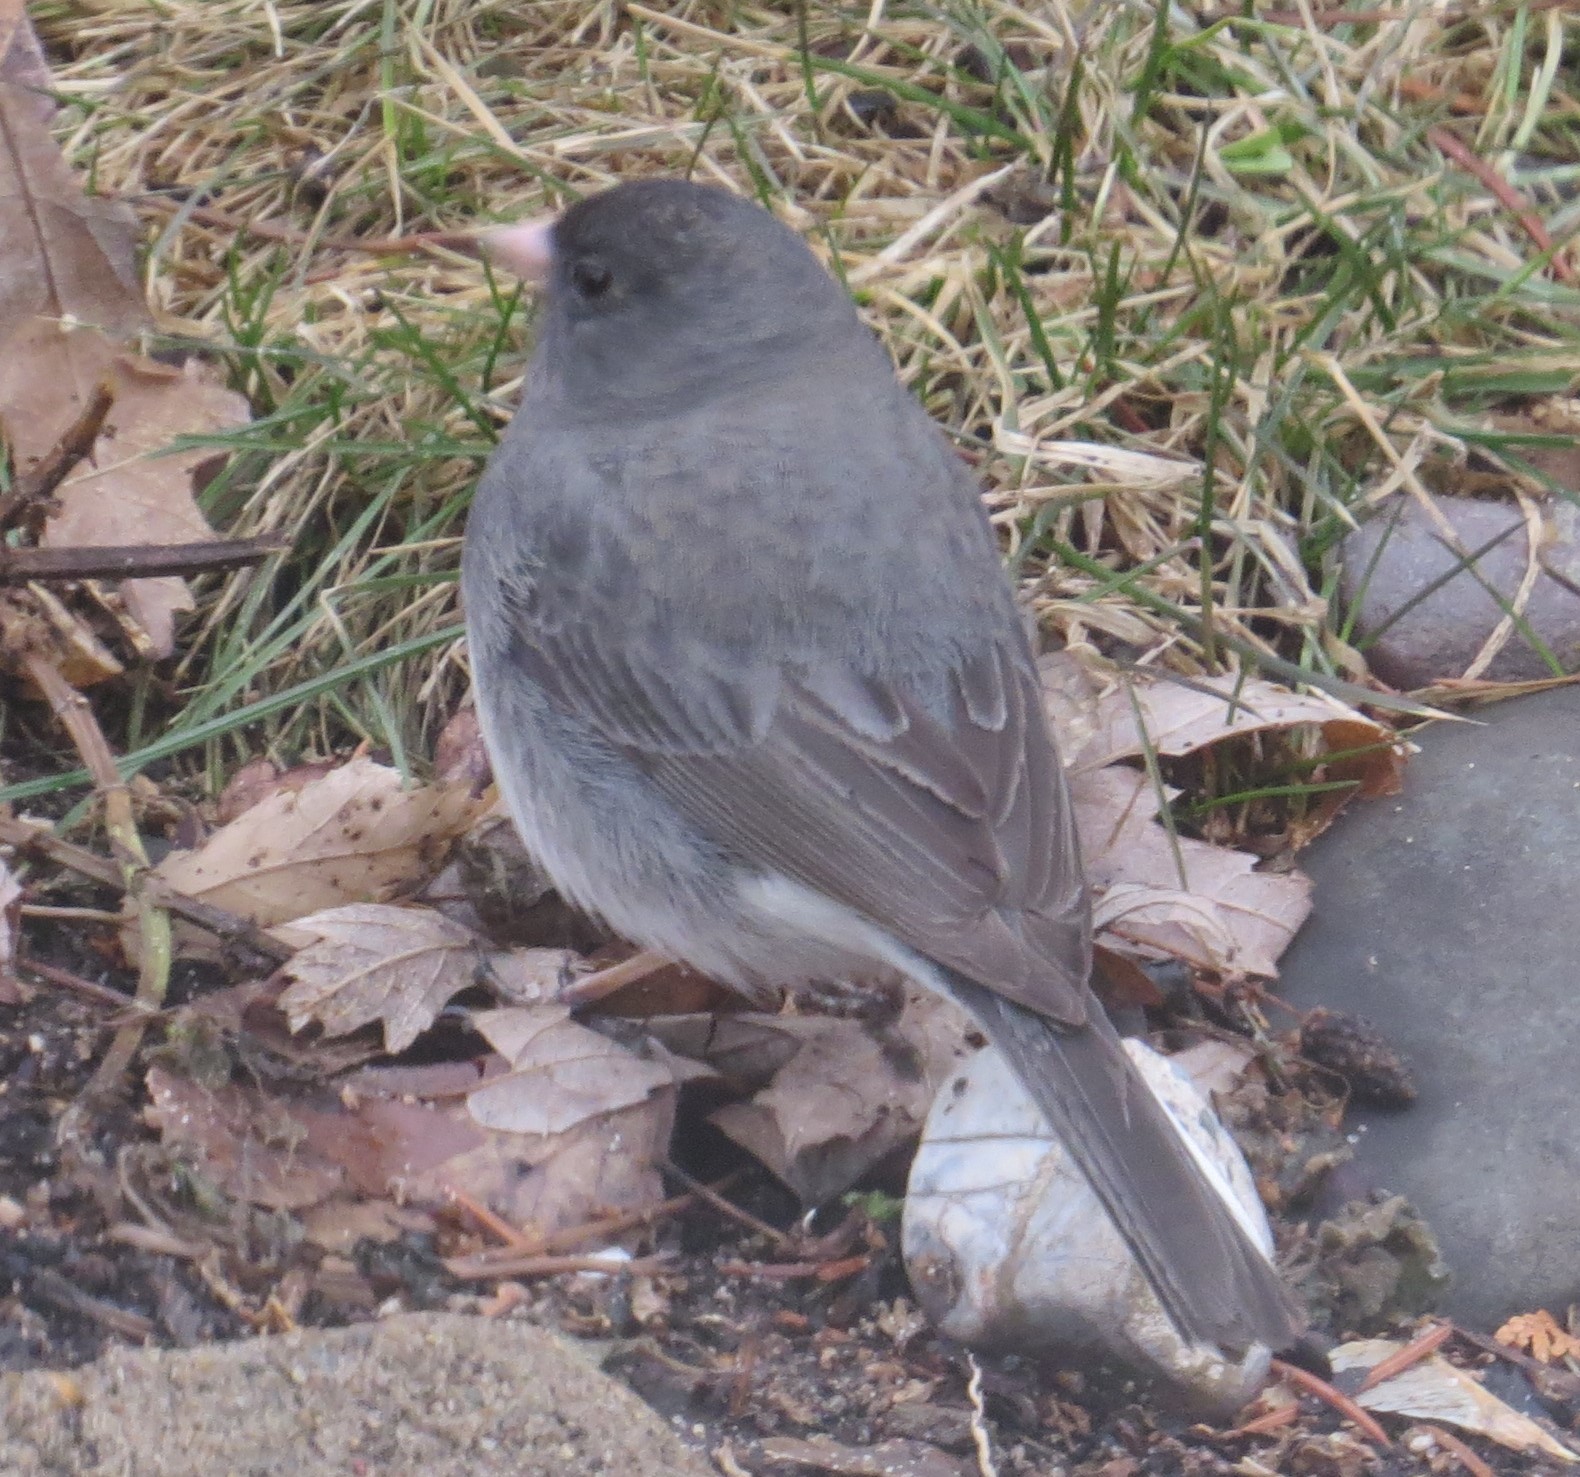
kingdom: Animalia
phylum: Chordata
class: Aves
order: Passeriformes
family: Passerellidae
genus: Junco
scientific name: Junco hyemalis
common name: Dark-eyed junco
